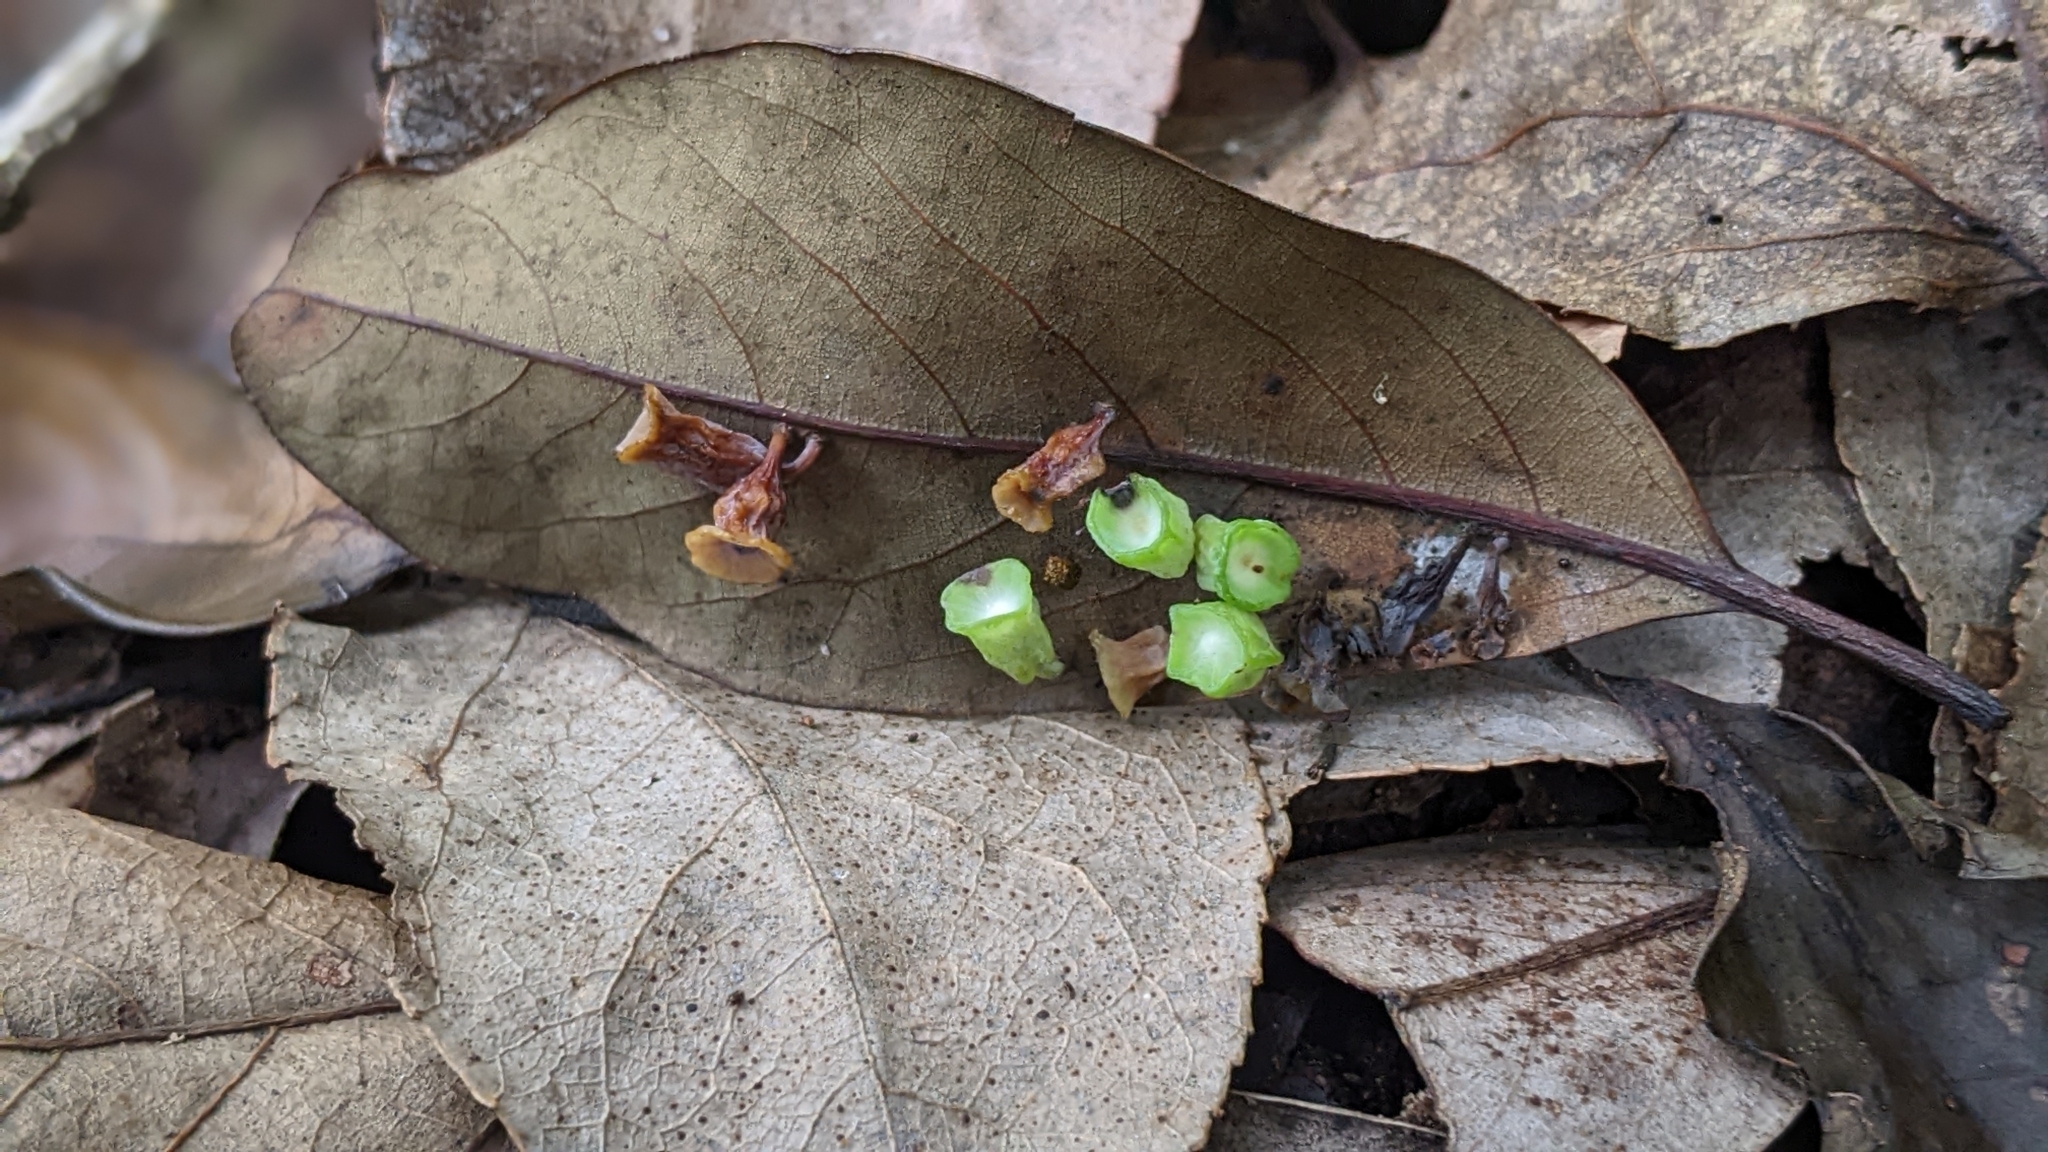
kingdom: Animalia
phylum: Arthropoda
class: Insecta
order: Diptera
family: Cecidomyiidae
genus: Daphnephila
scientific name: Daphnephila urnicola
